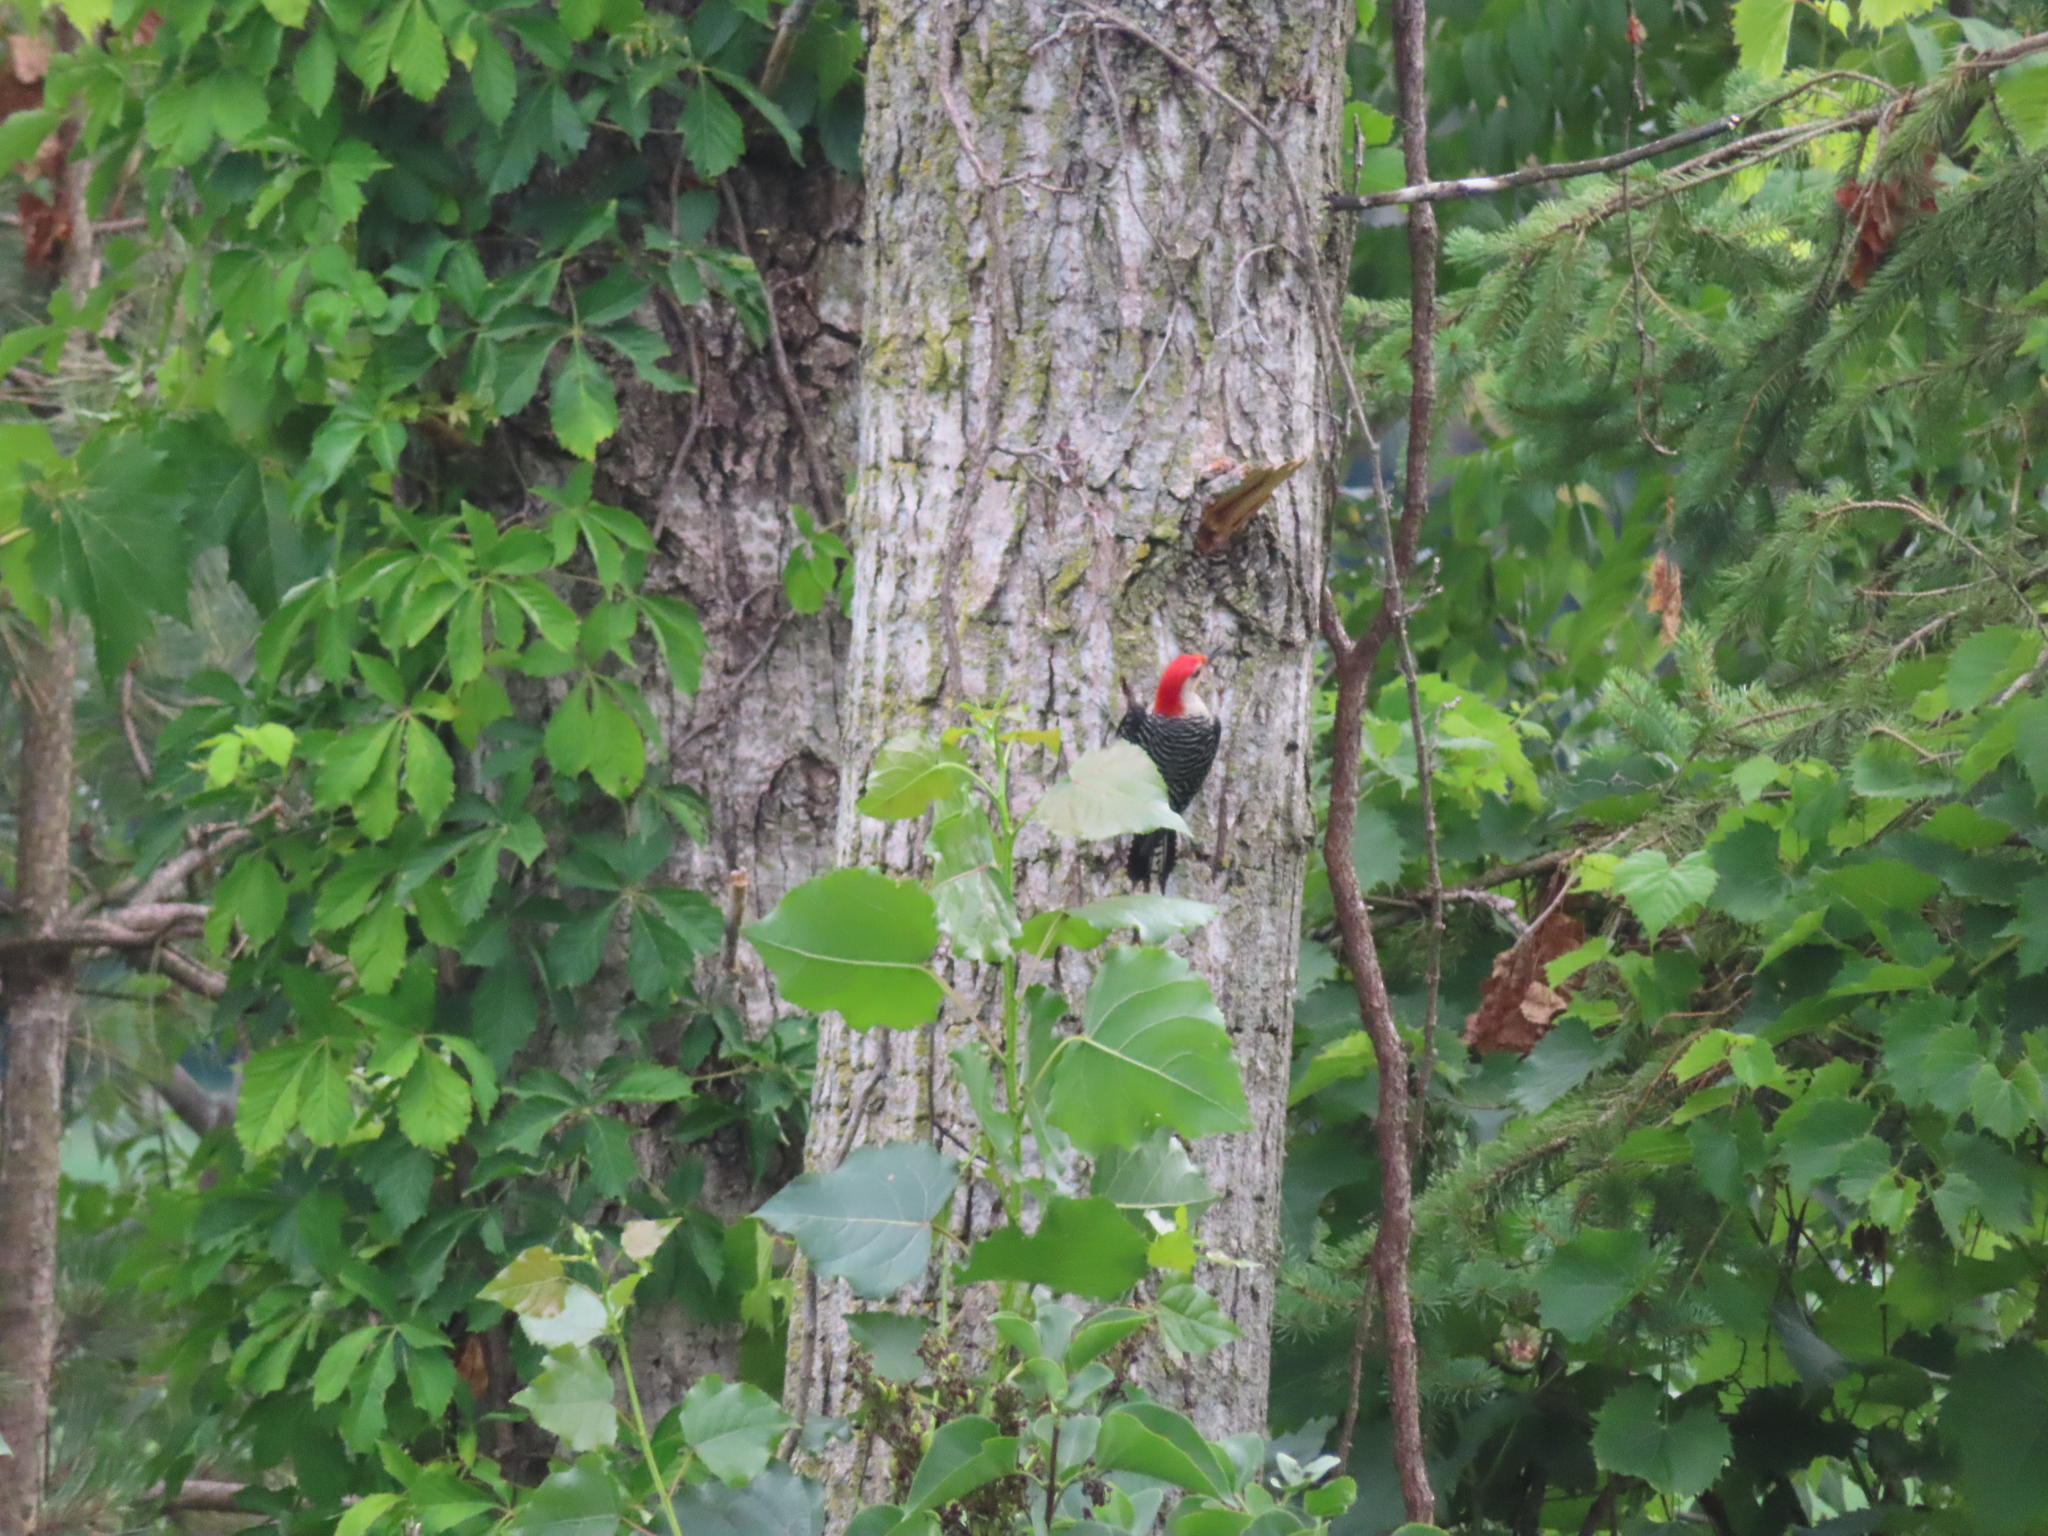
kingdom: Animalia
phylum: Chordata
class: Aves
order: Piciformes
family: Picidae
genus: Melanerpes
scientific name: Melanerpes carolinus
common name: Red-bellied woodpecker
